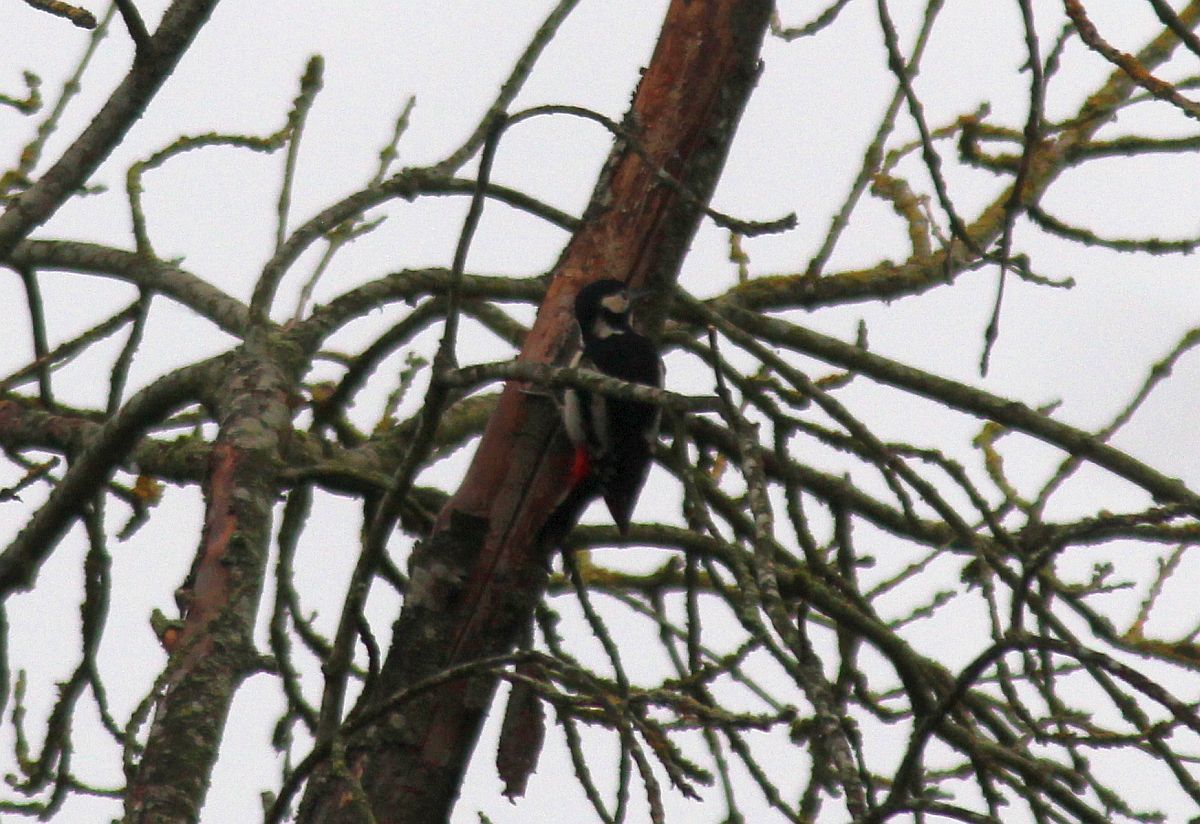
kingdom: Animalia
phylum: Chordata
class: Aves
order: Piciformes
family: Picidae
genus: Dendrocopos
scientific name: Dendrocopos major
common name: Great spotted woodpecker
